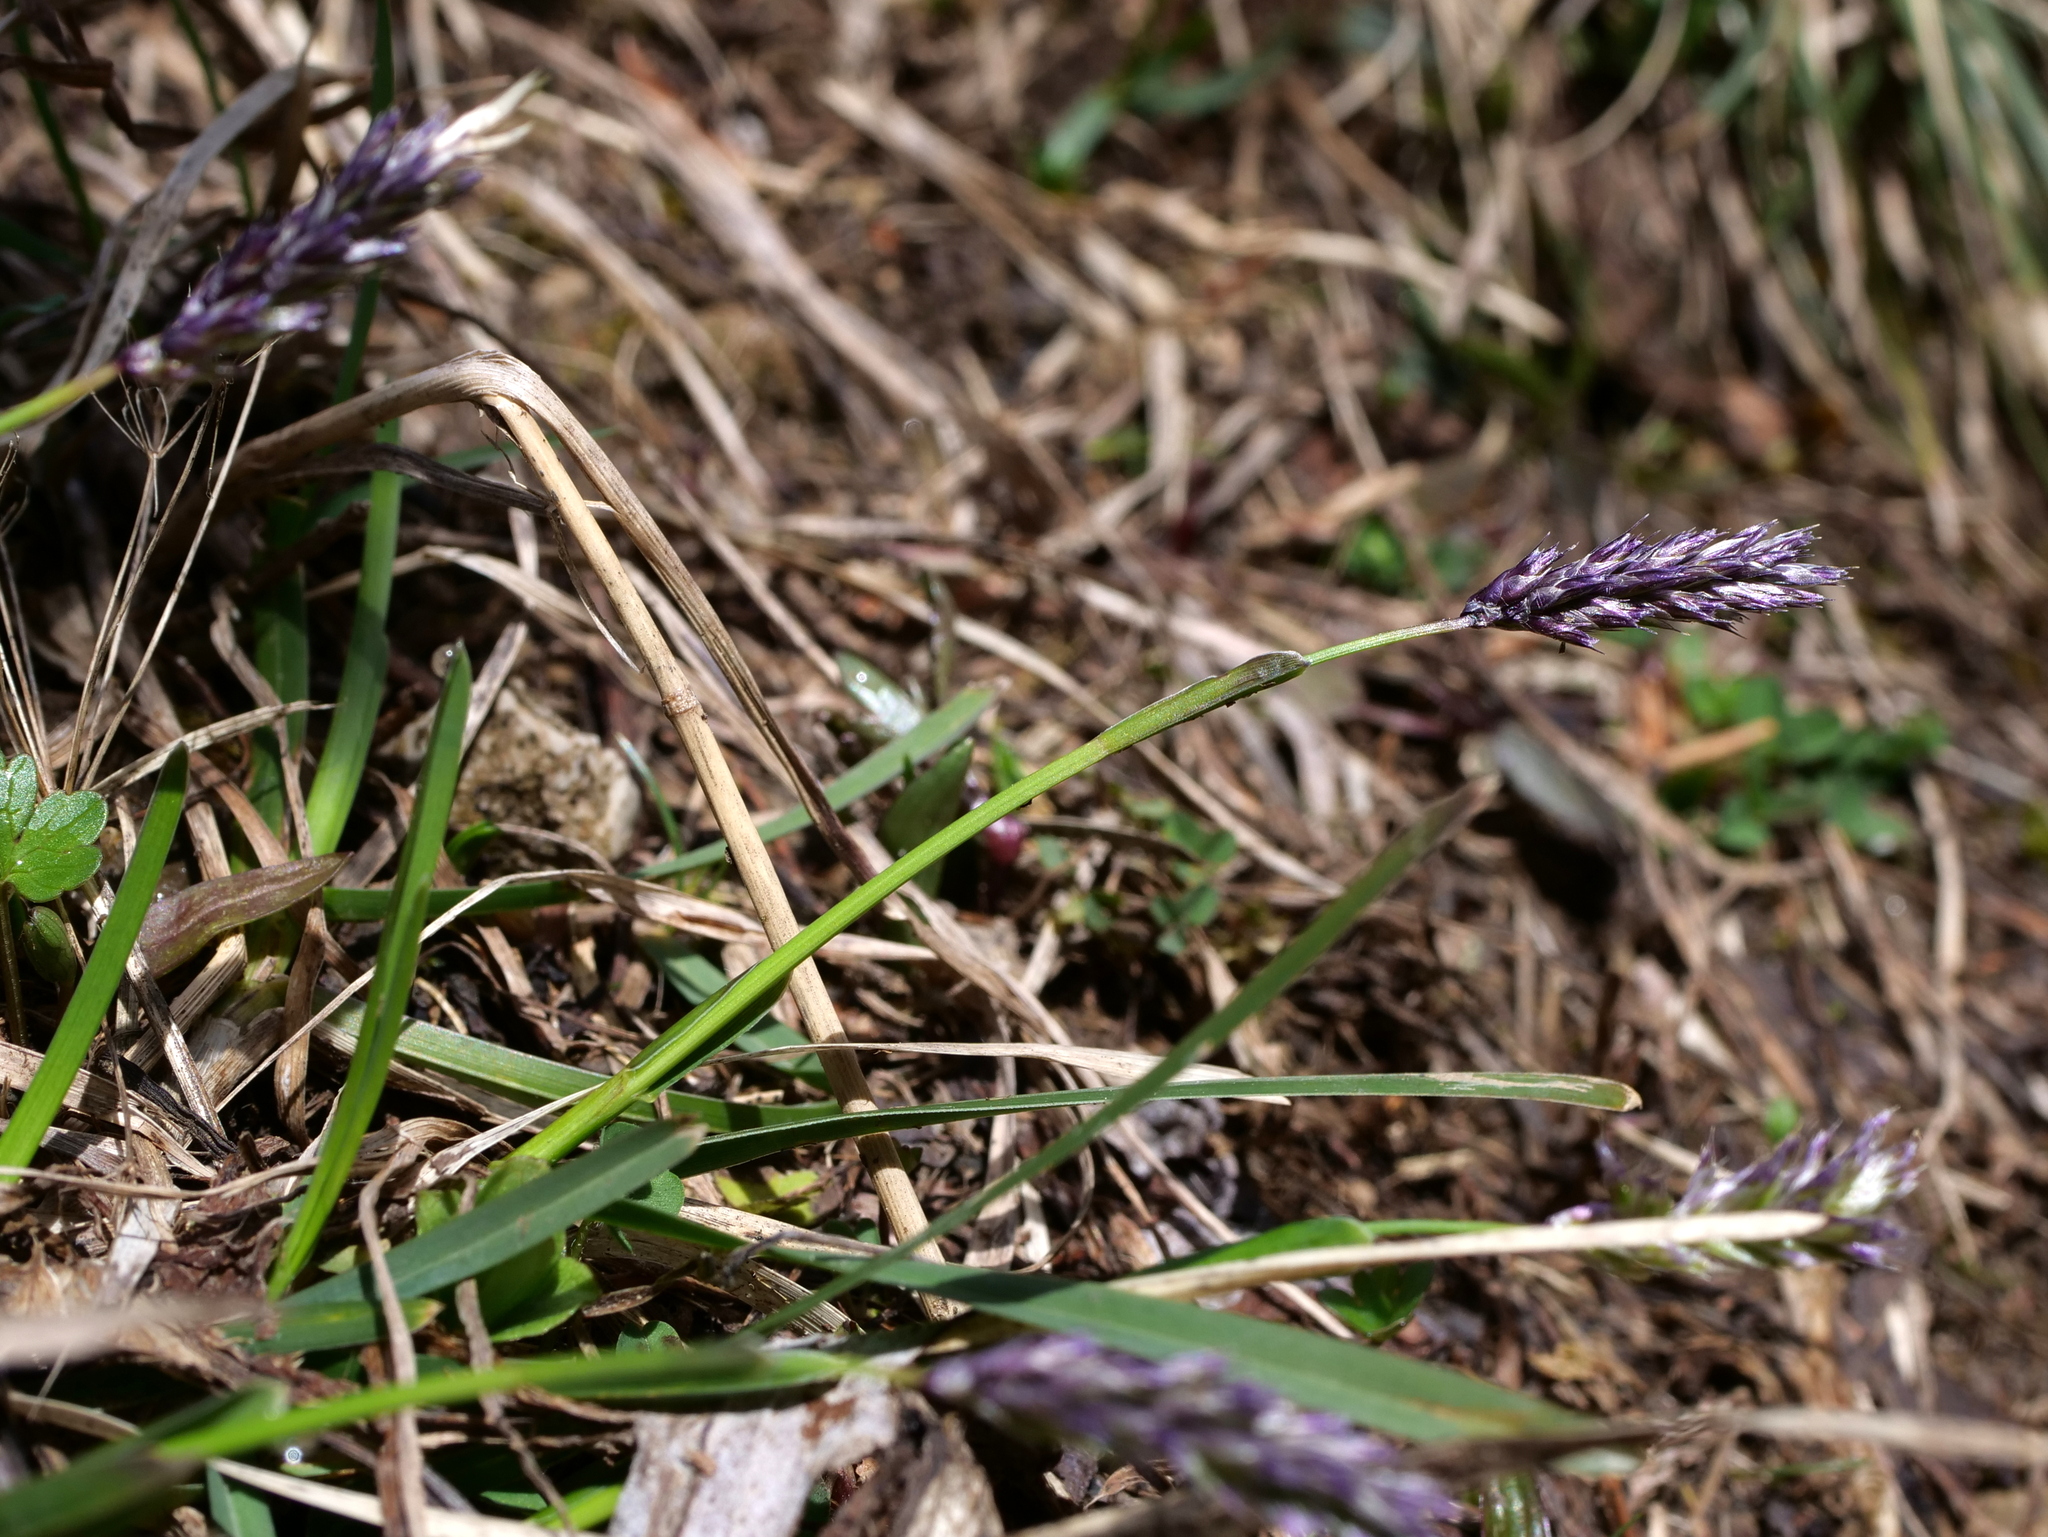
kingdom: Plantae
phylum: Tracheophyta
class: Liliopsida
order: Poales
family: Poaceae
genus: Sesleria
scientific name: Sesleria caerulea
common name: Blue moor-grass
